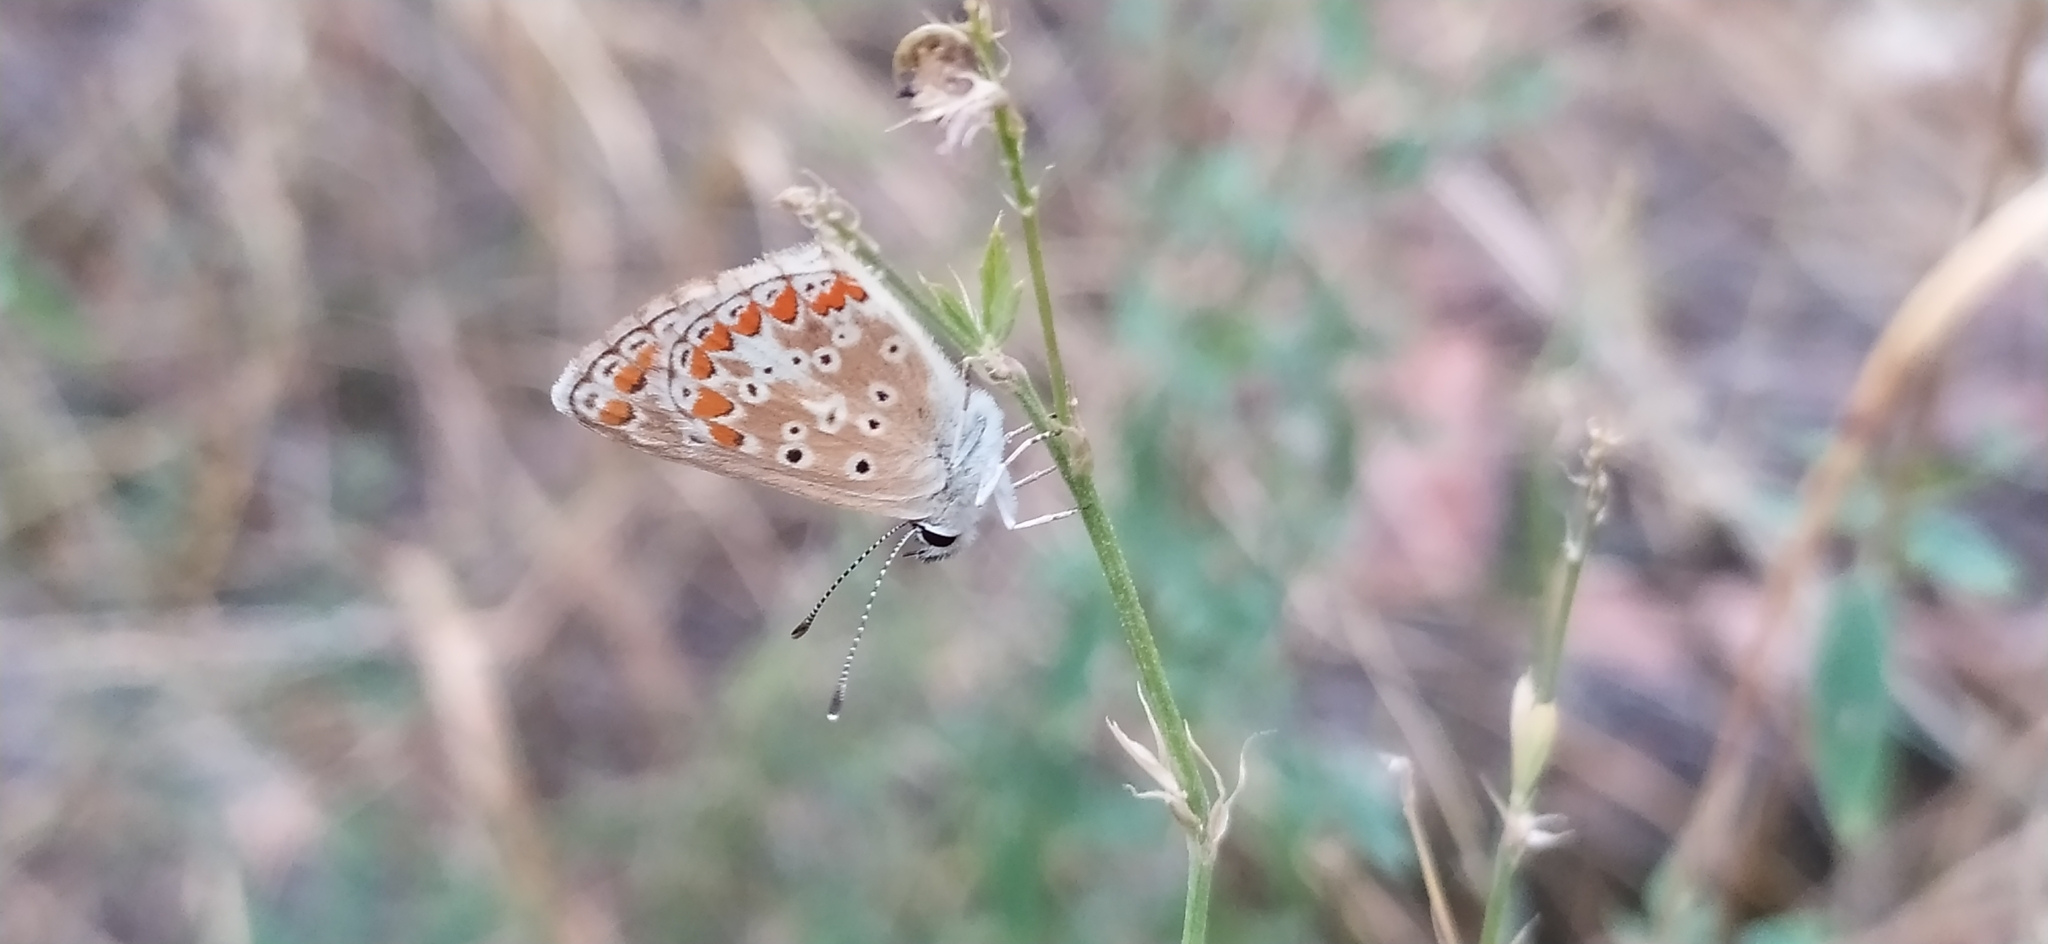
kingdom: Animalia
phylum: Arthropoda
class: Insecta
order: Lepidoptera
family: Lycaenidae
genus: Aricia
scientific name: Aricia agestis
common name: Brown argus
